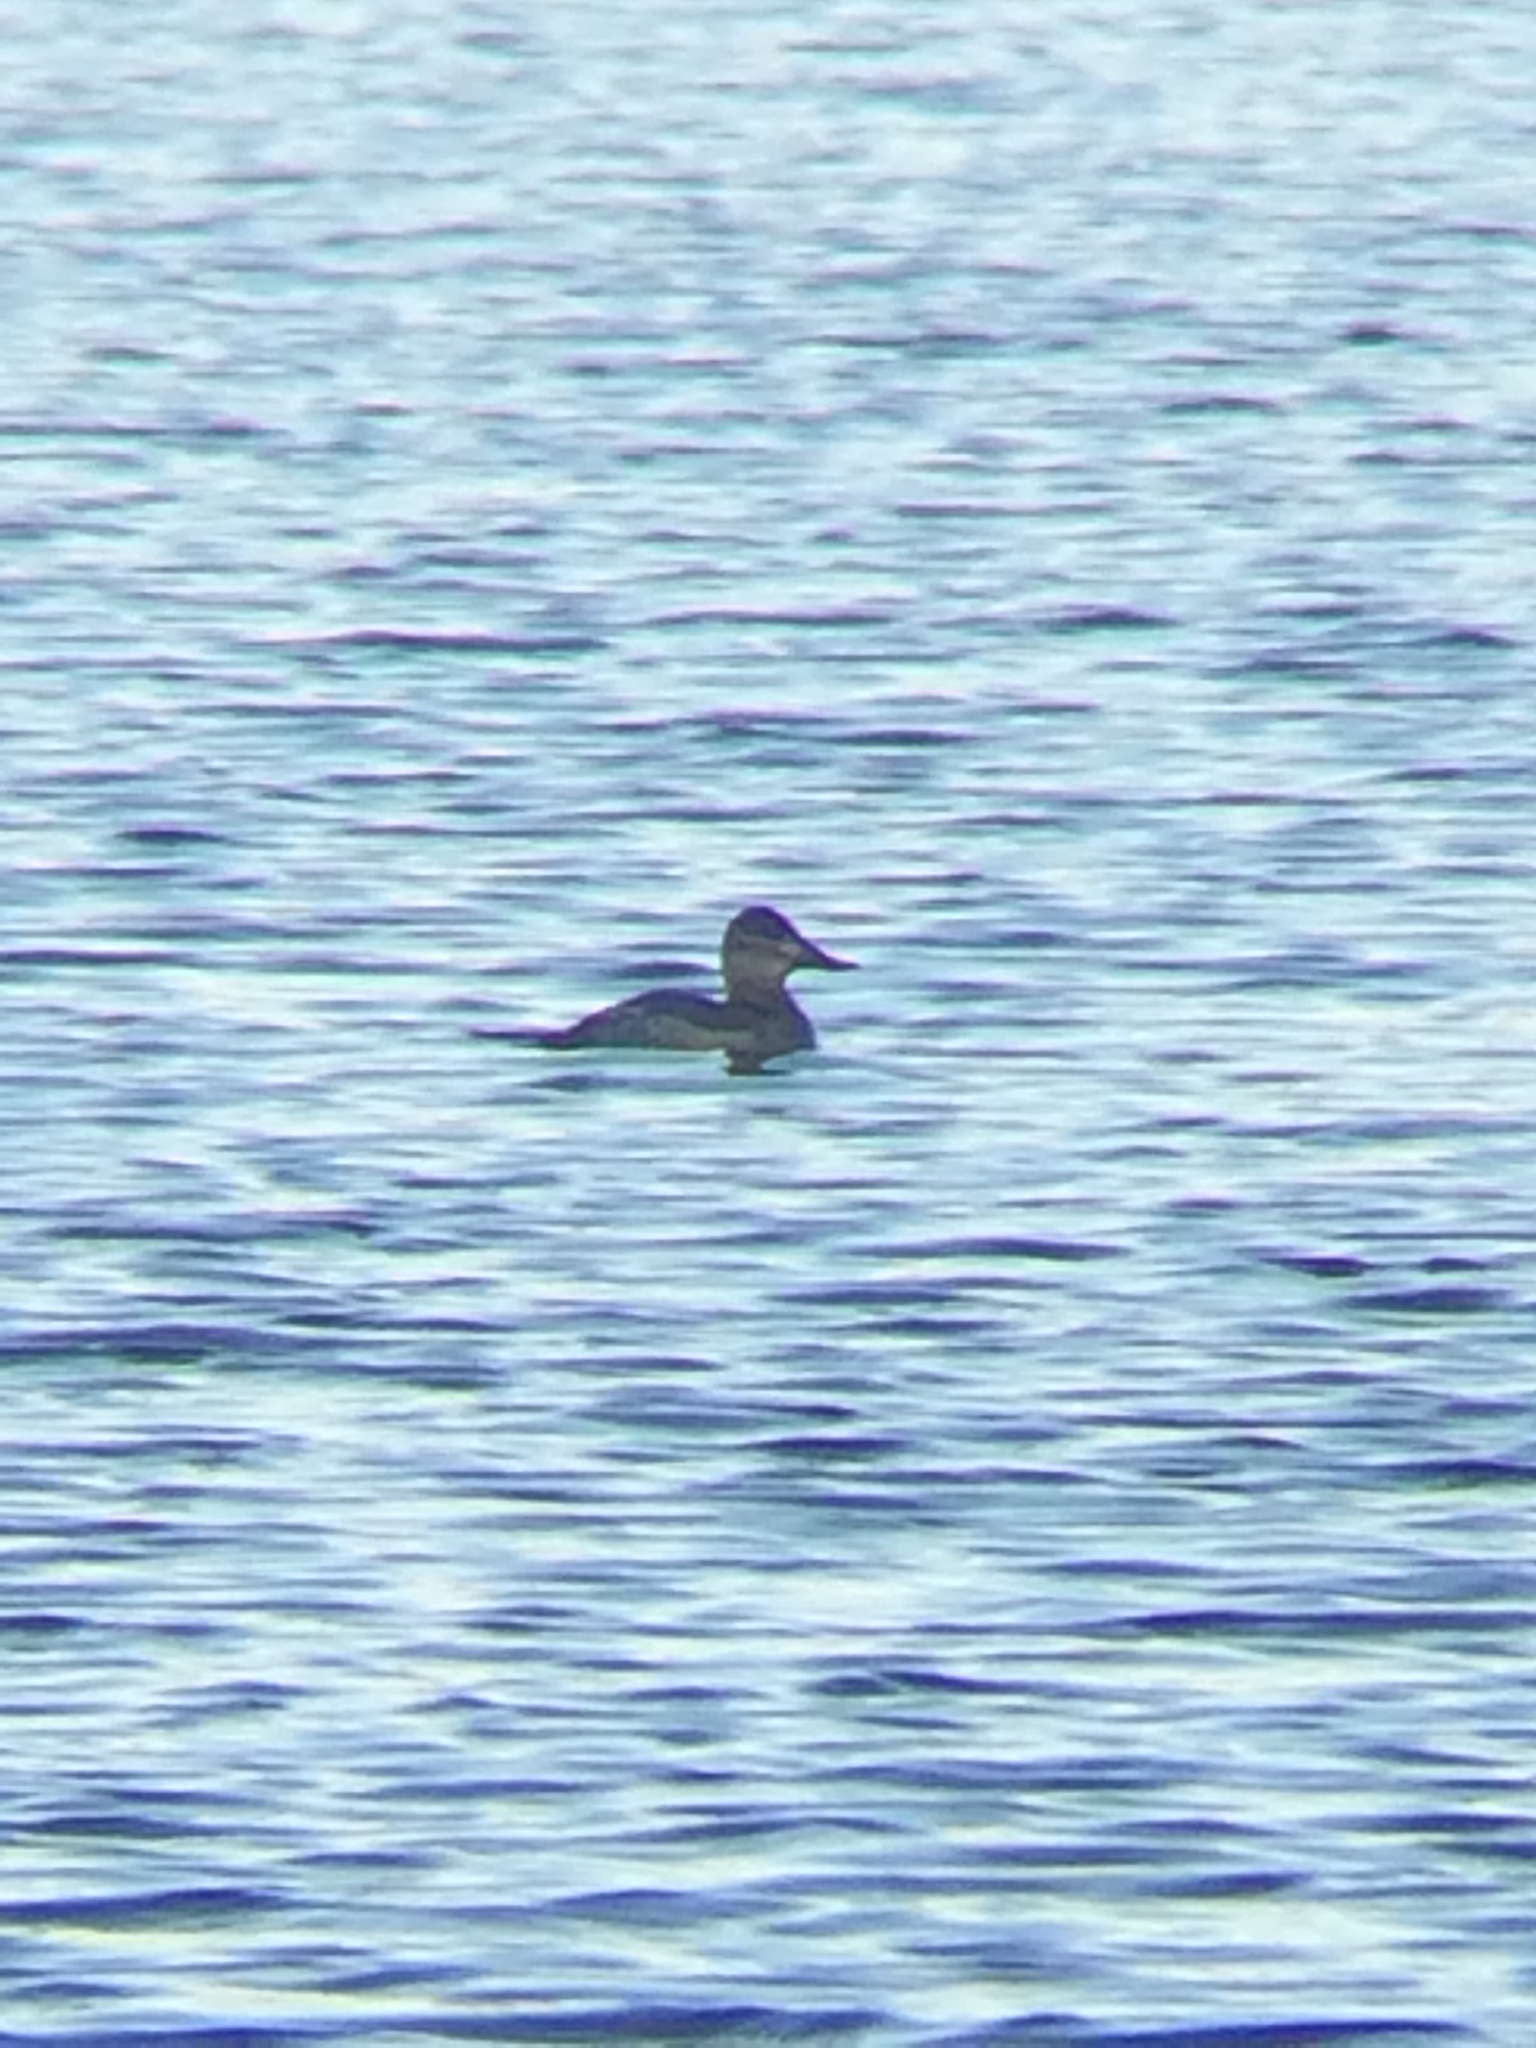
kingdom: Animalia
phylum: Chordata
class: Aves
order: Anseriformes
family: Anatidae
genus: Oxyura
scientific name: Oxyura jamaicensis
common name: Ruddy duck
